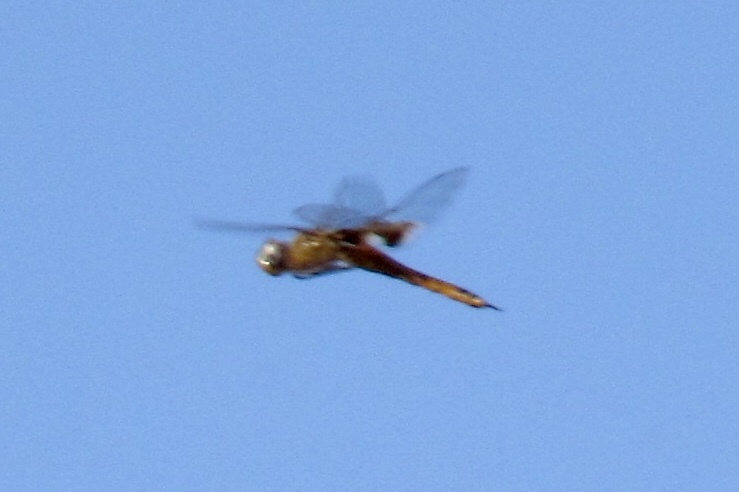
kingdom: Animalia
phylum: Arthropoda
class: Insecta
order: Odonata
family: Libellulidae
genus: Tramea
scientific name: Tramea onusta
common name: Red saddlebags
